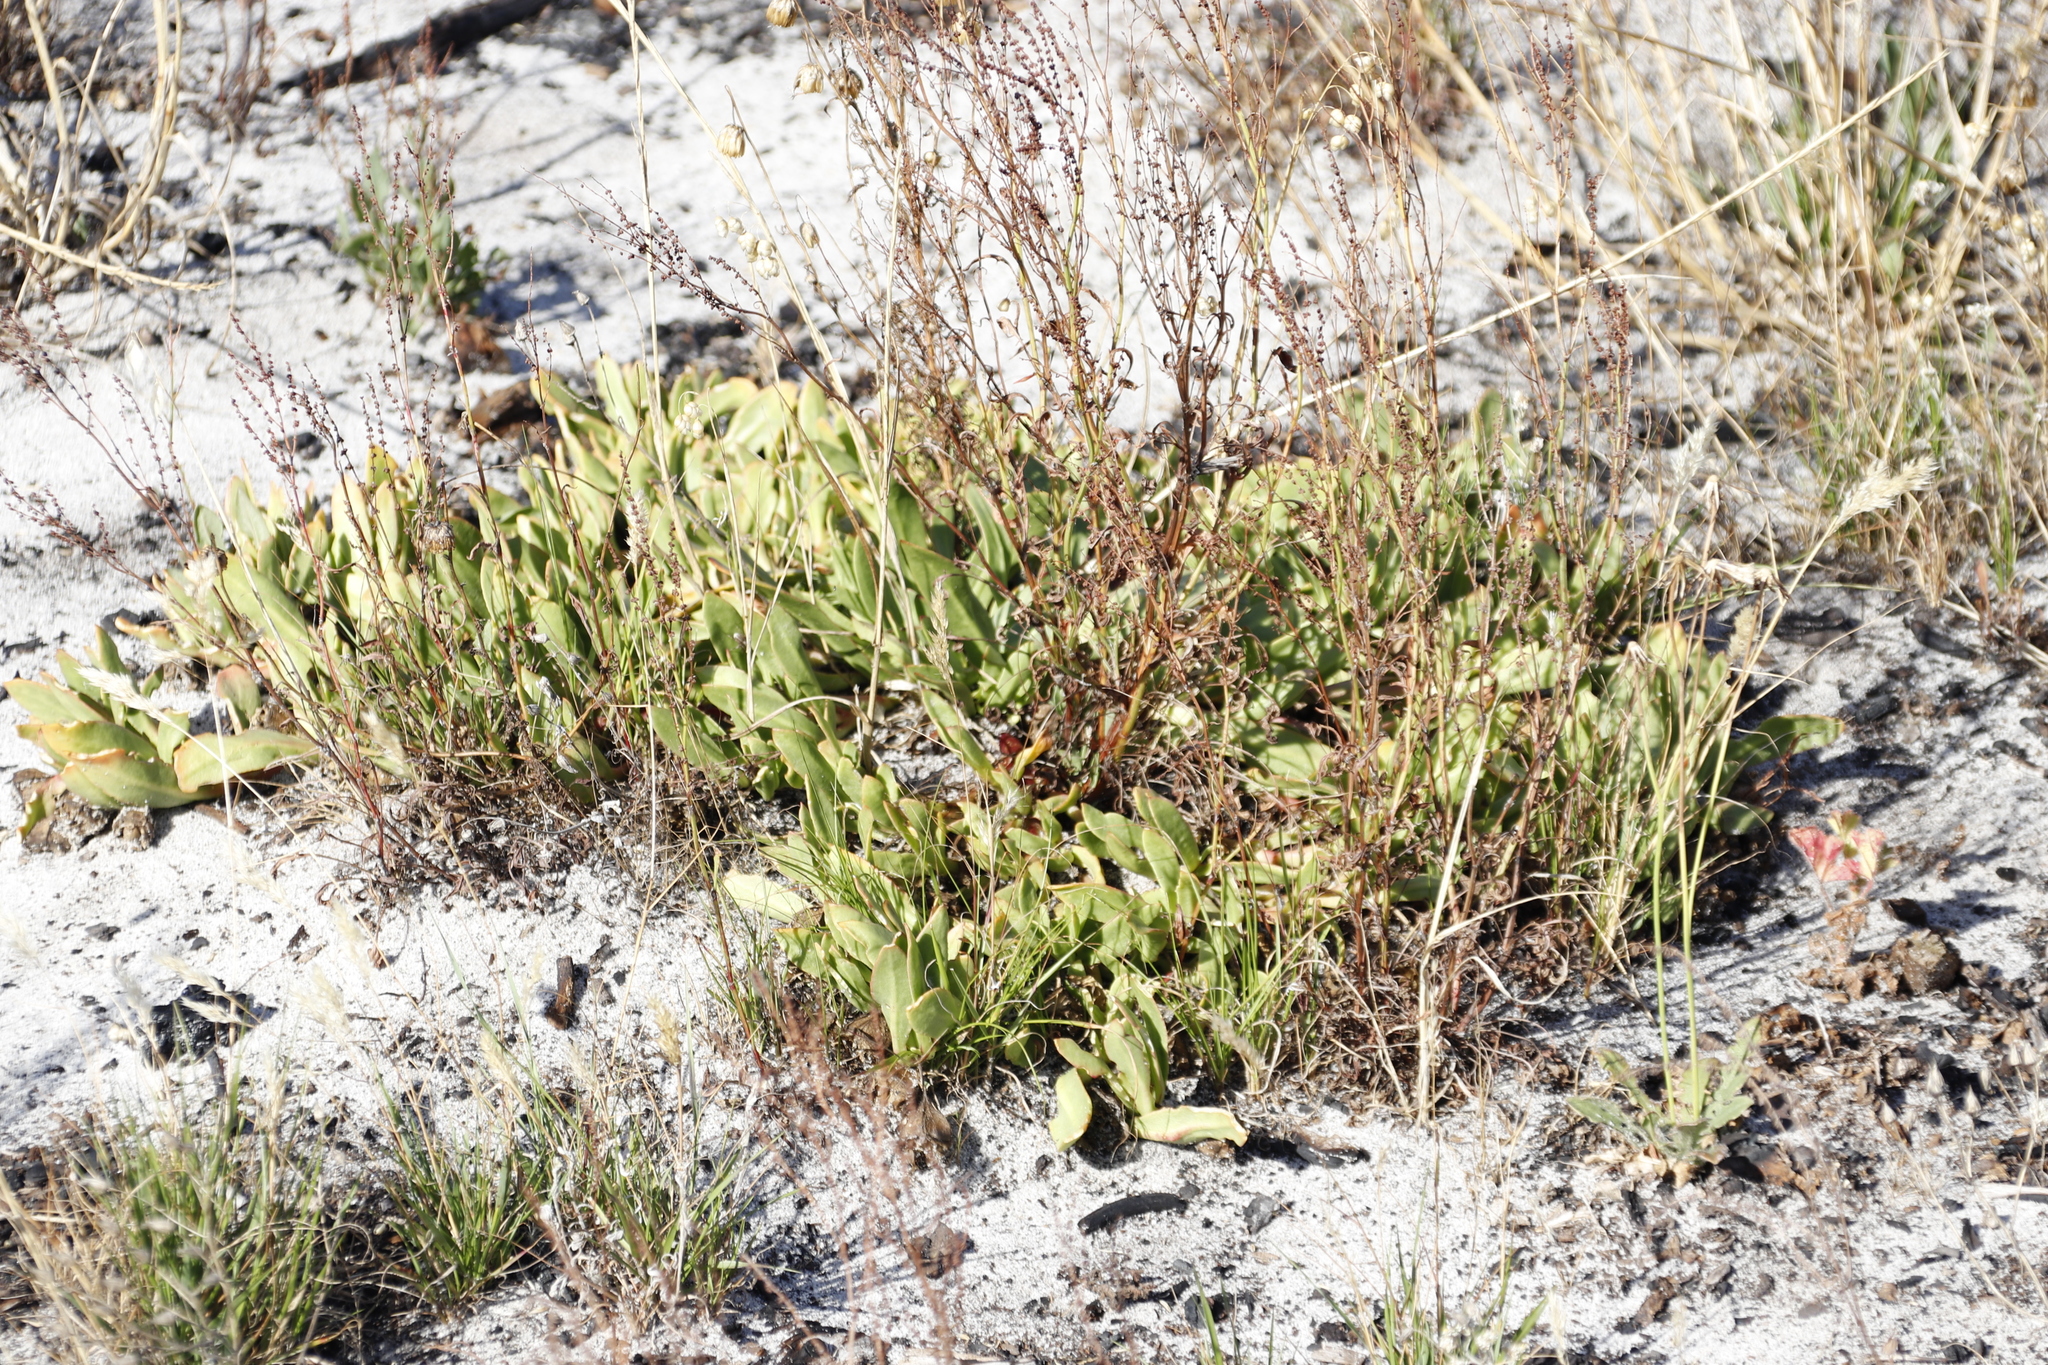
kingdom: Plantae
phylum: Tracheophyta
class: Magnoliopsida
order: Caryophyllales
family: Aizoaceae
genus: Skiatophytum
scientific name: Skiatophytum tripolium
